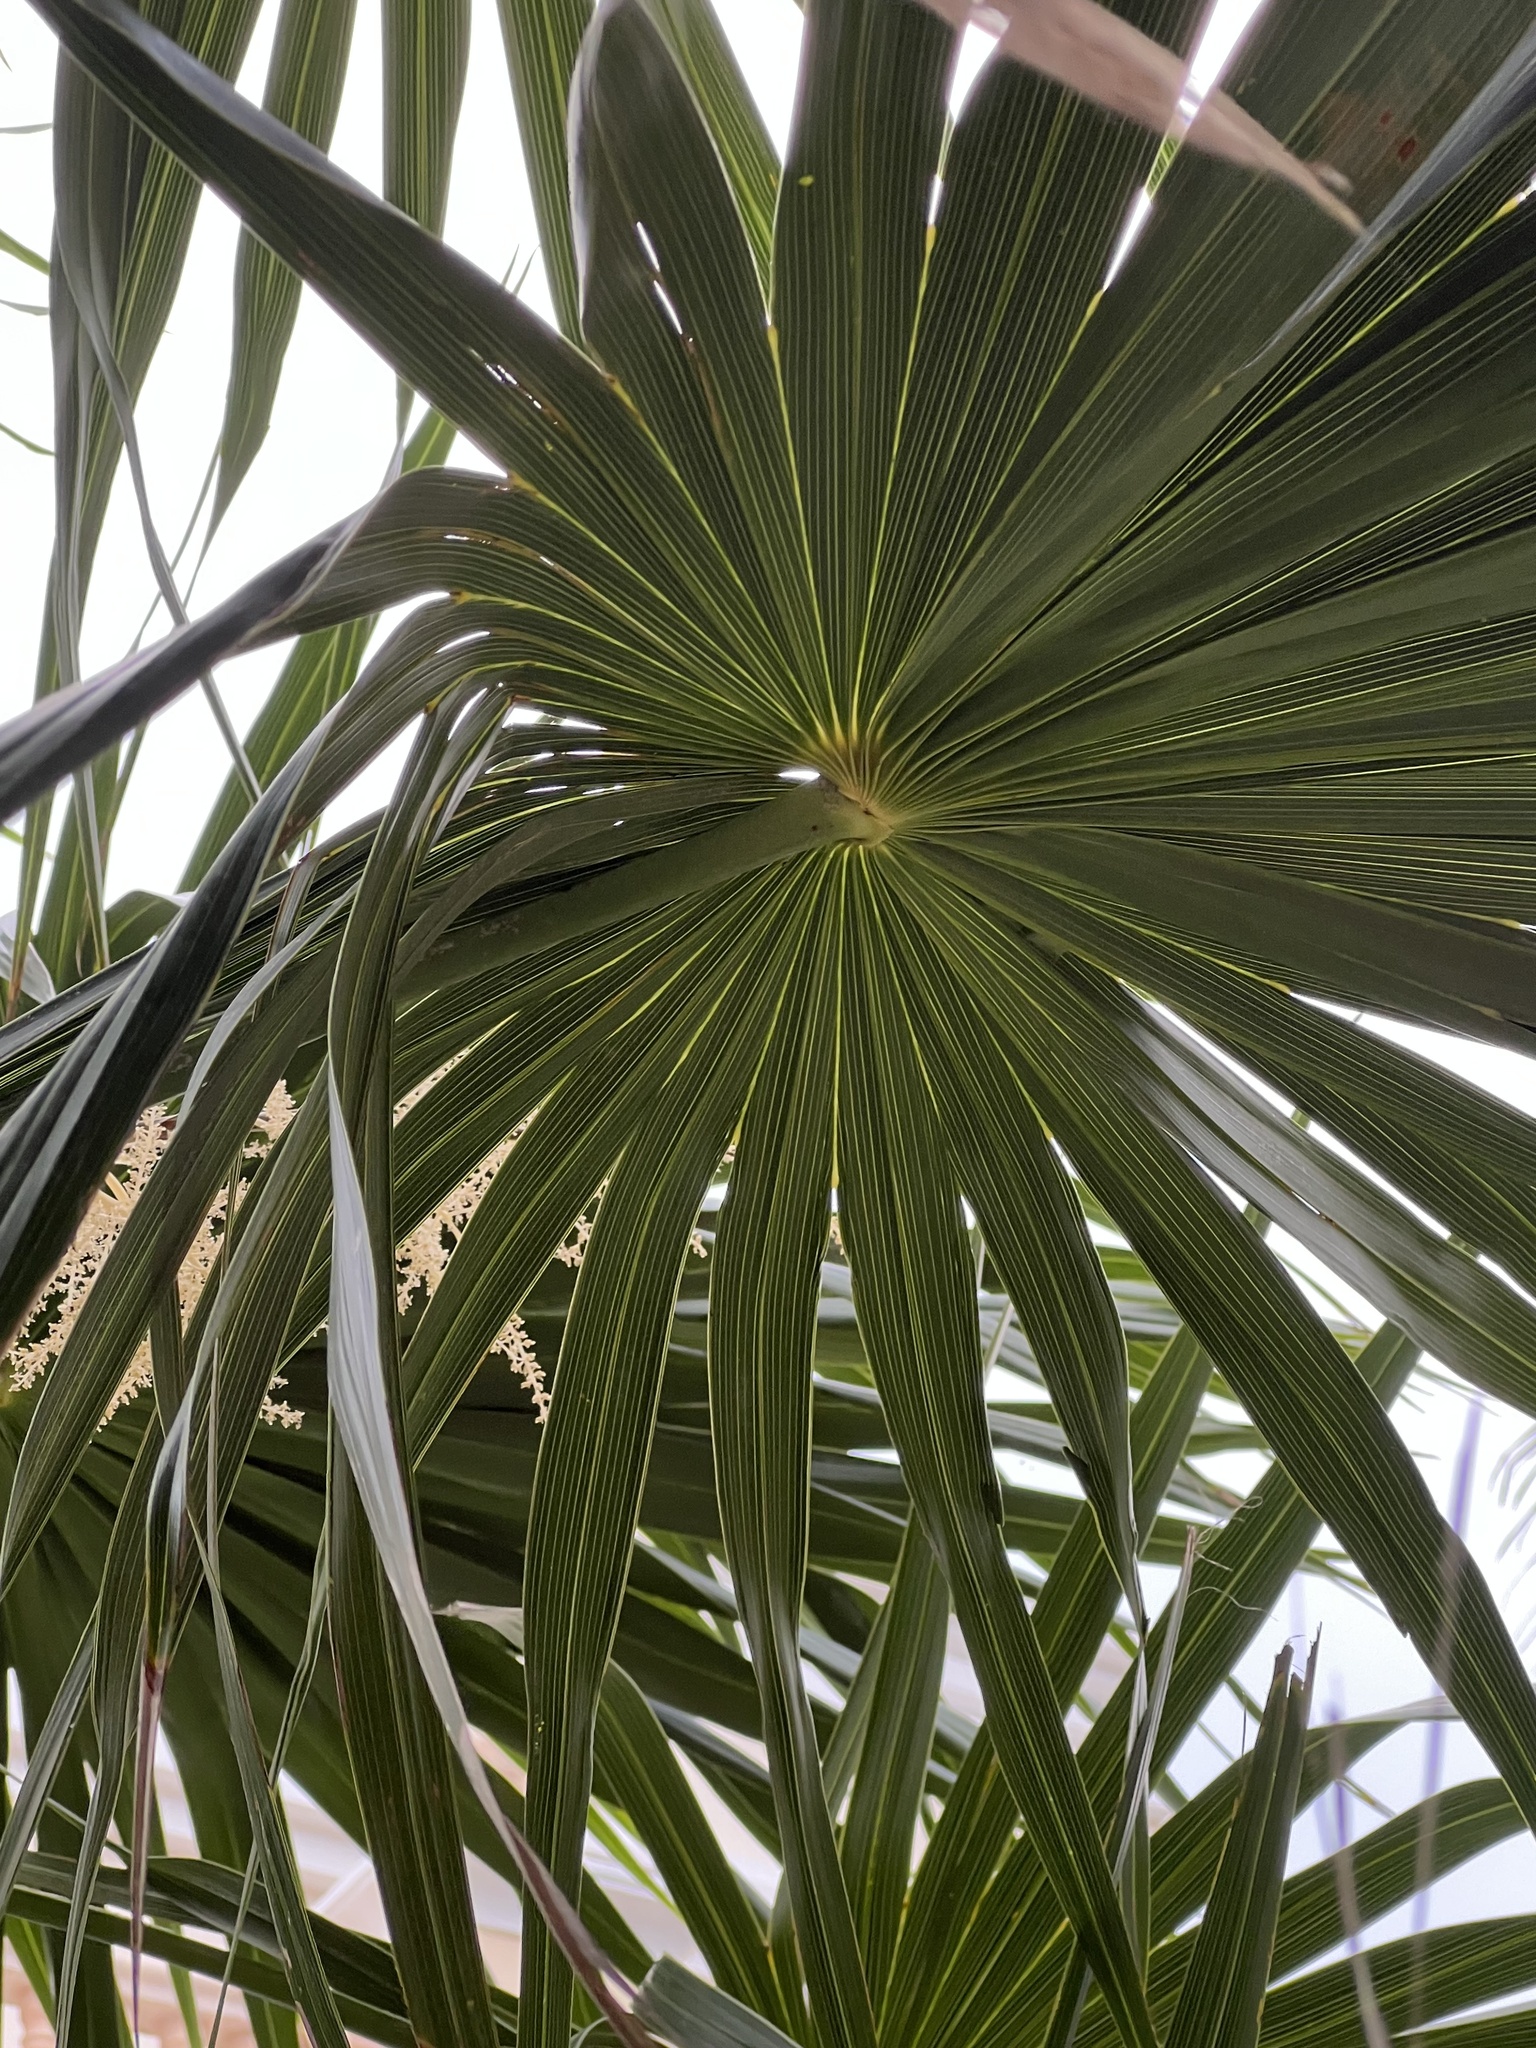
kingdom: Plantae
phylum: Tracheophyta
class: Liliopsida
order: Arecales
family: Arecaceae
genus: Thrinax
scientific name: Thrinax radiata
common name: Florida thatch
